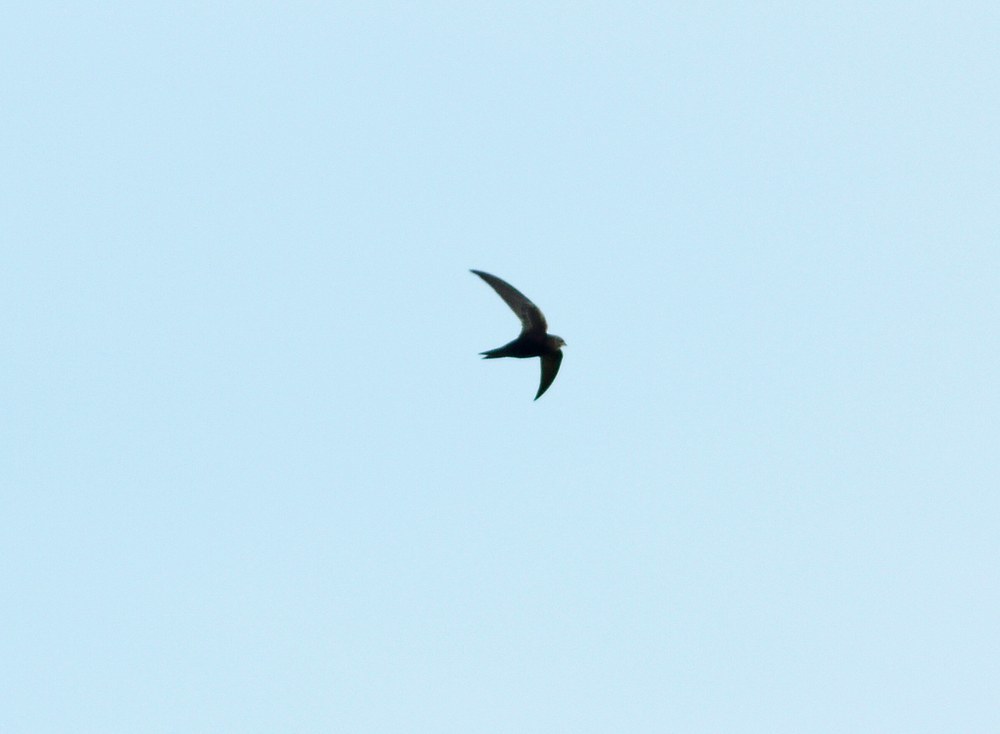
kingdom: Animalia
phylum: Chordata
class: Aves
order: Apodiformes
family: Apodidae
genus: Apus
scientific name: Apus apus
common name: Common swift
